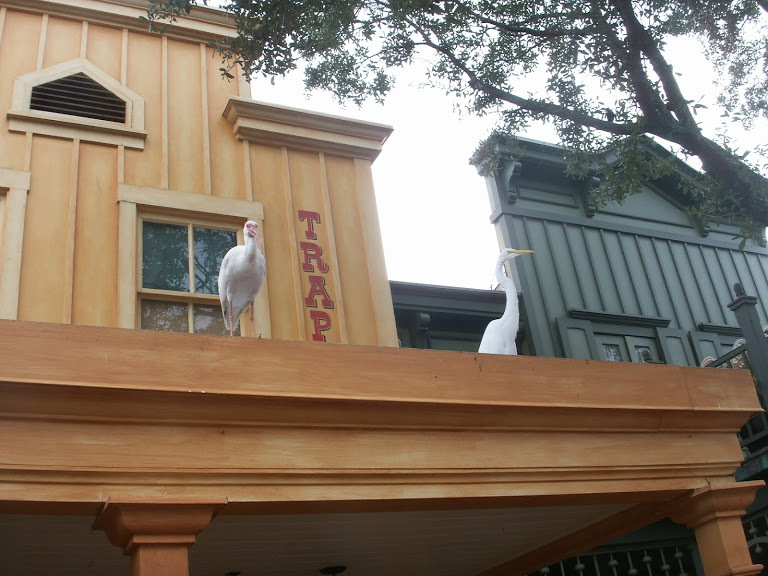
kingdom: Animalia
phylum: Chordata
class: Aves
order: Pelecaniformes
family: Ardeidae
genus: Ardea
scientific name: Ardea alba
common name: Great egret
